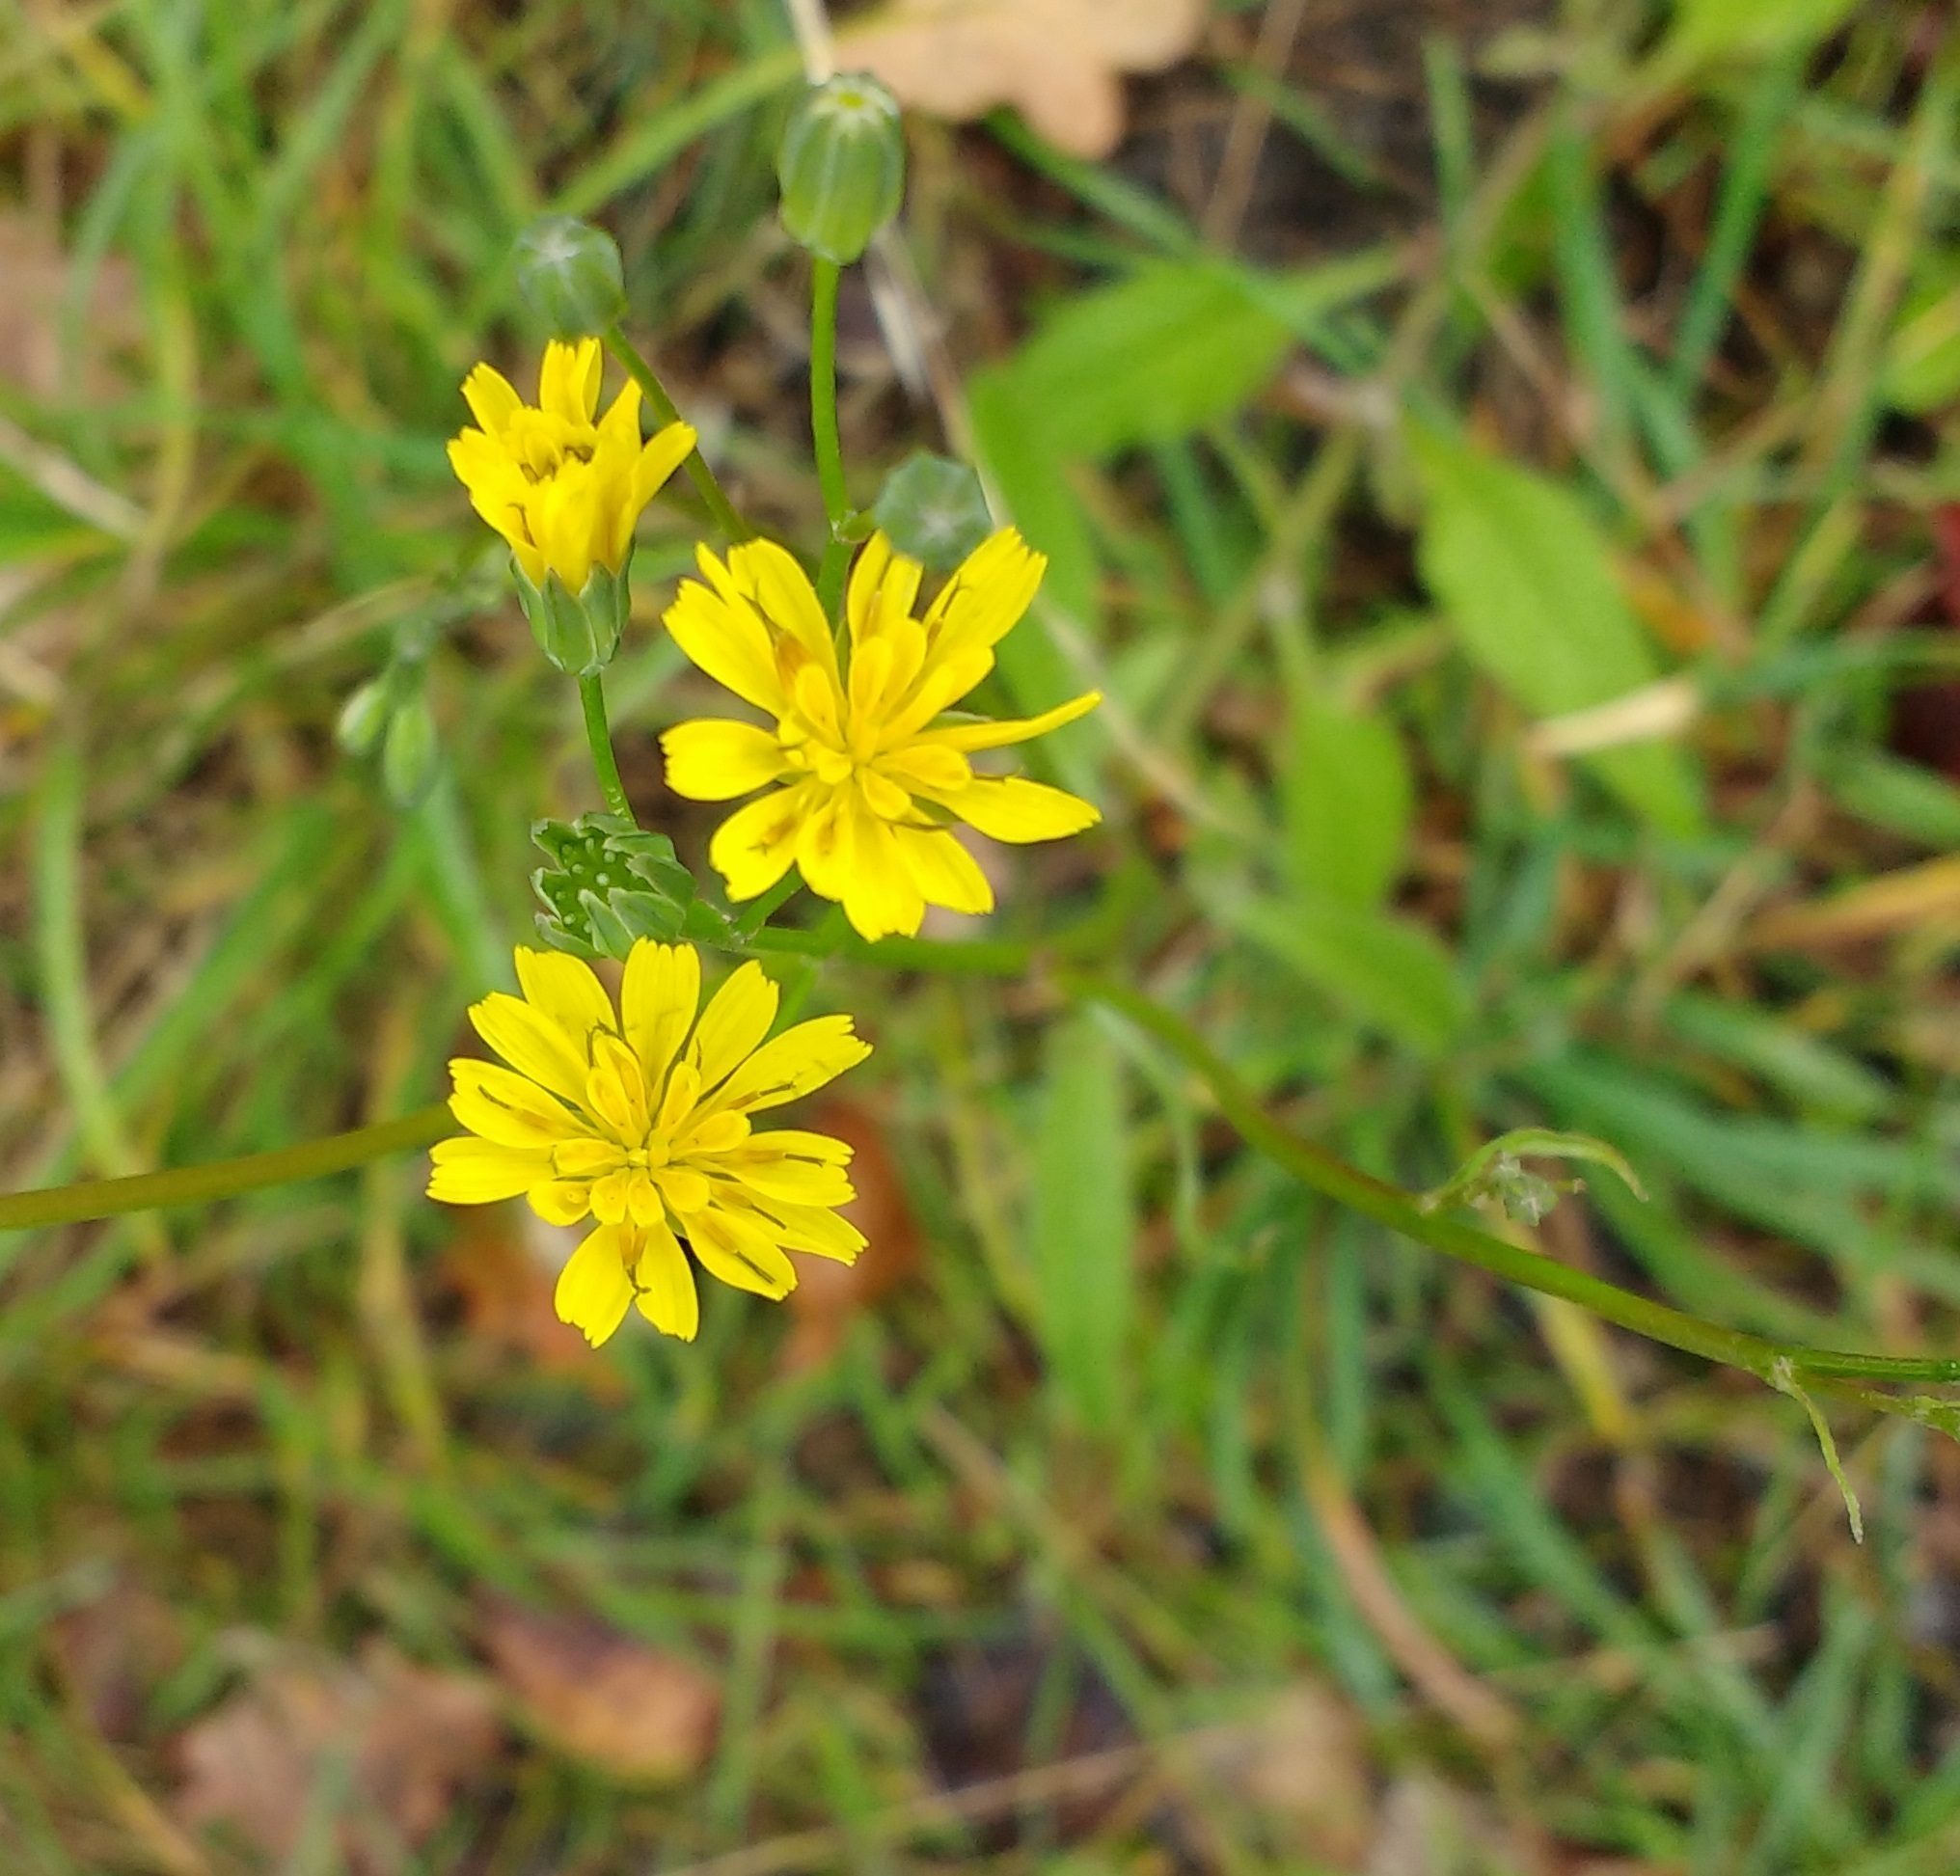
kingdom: Plantae
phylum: Tracheophyta
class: Magnoliopsida
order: Asterales
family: Asteraceae
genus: Lapsana
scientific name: Lapsana communis
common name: Nipplewort
